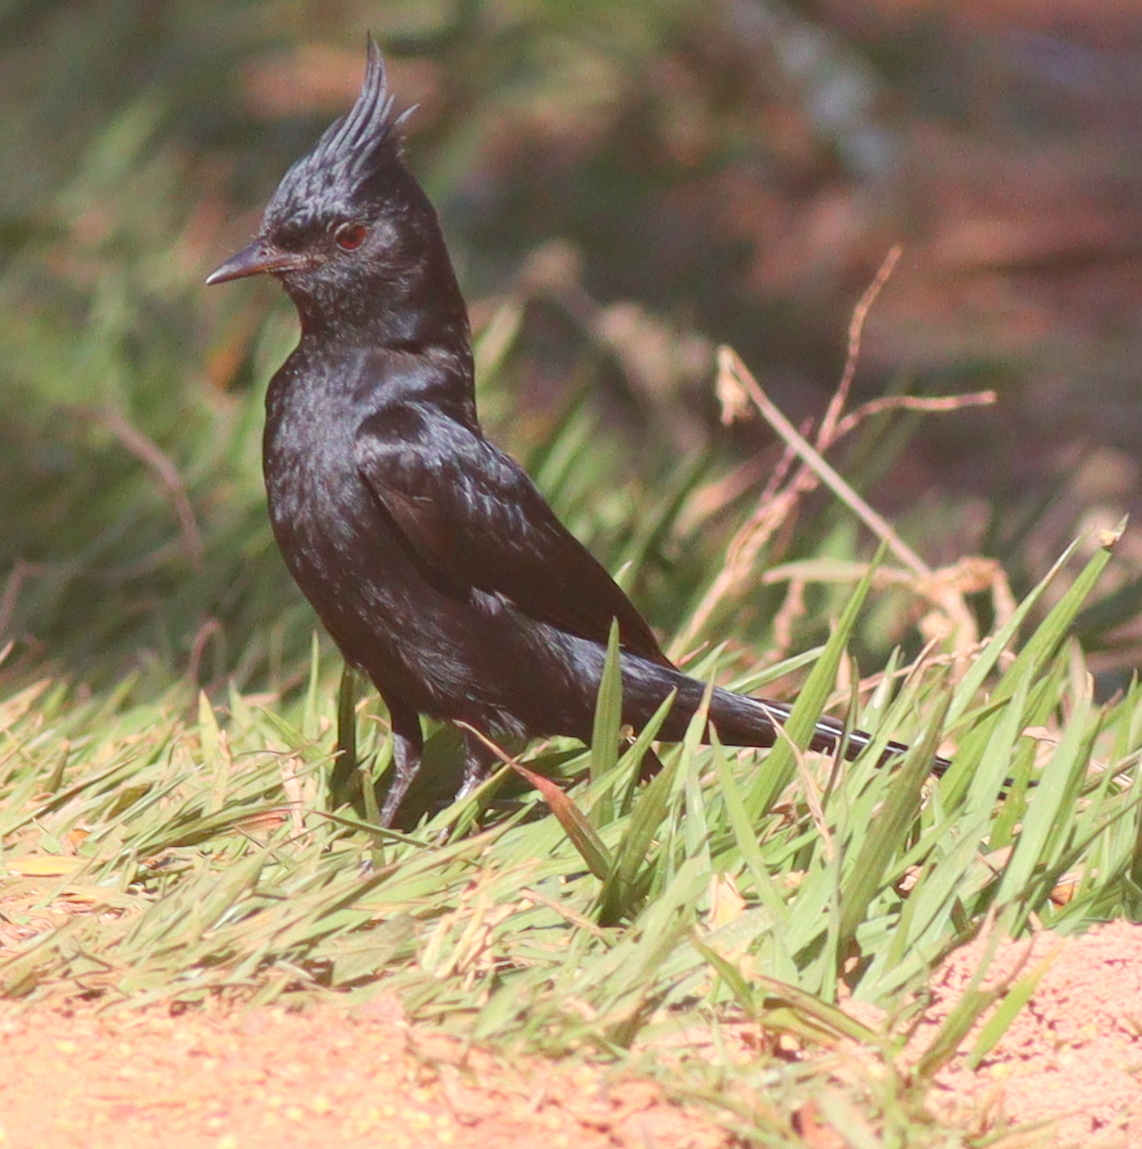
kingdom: Animalia
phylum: Chordata
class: Aves
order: Passeriformes
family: Tyrannidae
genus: Knipolegus
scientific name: Knipolegus lophotes
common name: Crested black tyrant
